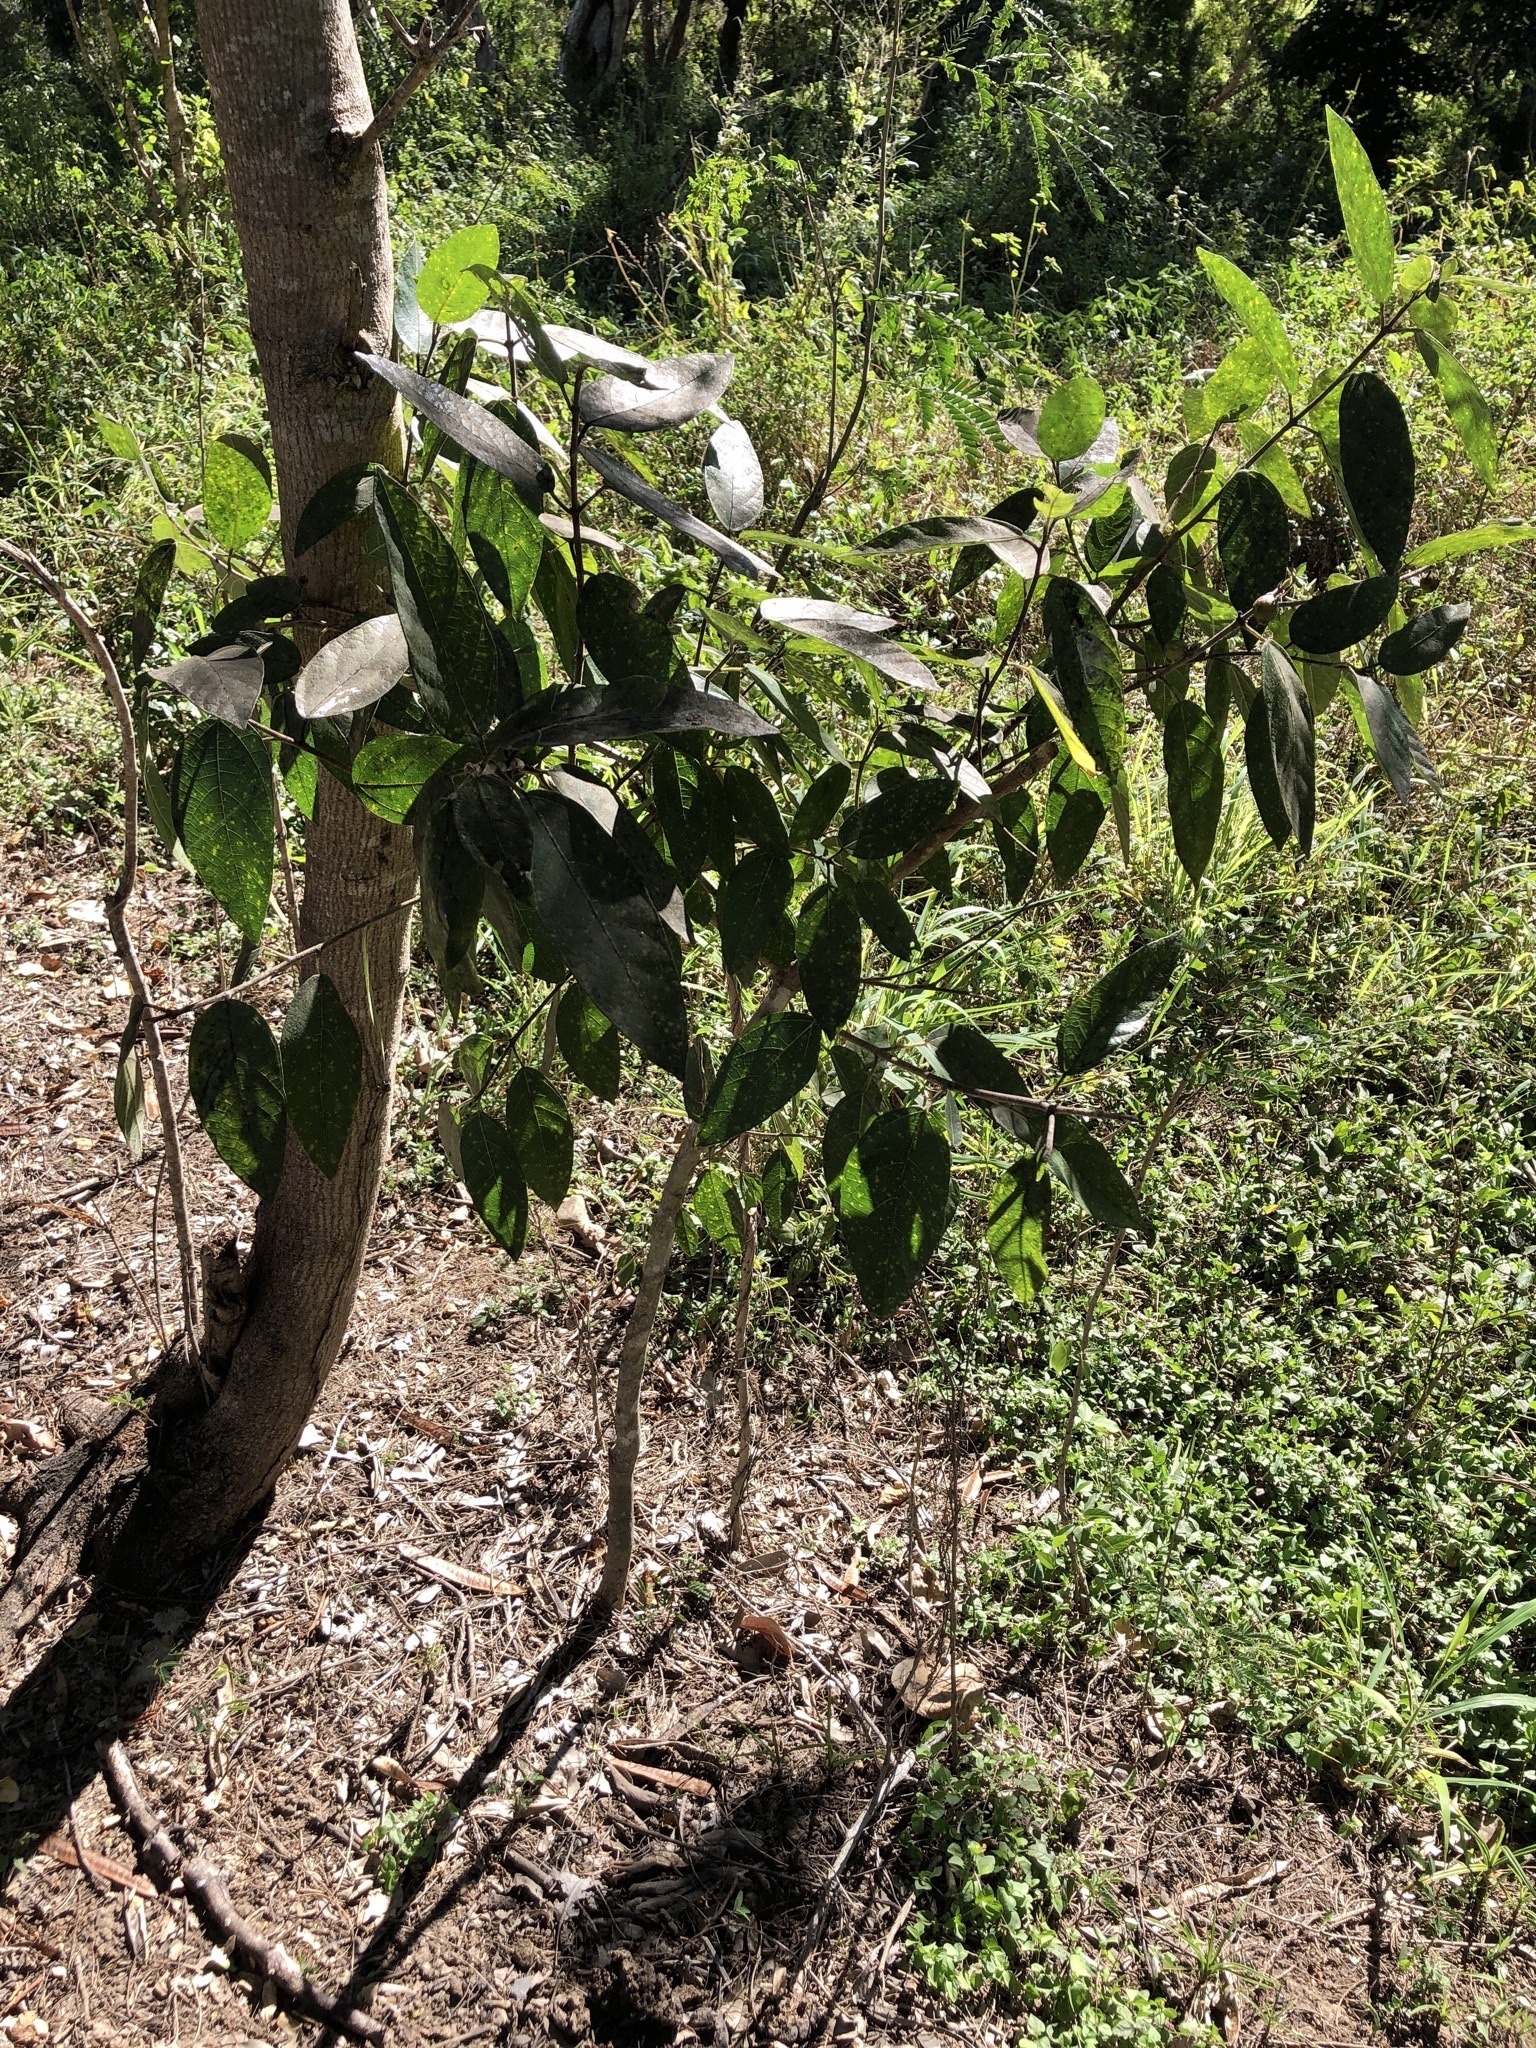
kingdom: Plantae
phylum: Tracheophyta
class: Magnoliopsida
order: Rosales
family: Moraceae
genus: Ficus
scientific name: Ficus opposita
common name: Figwood
